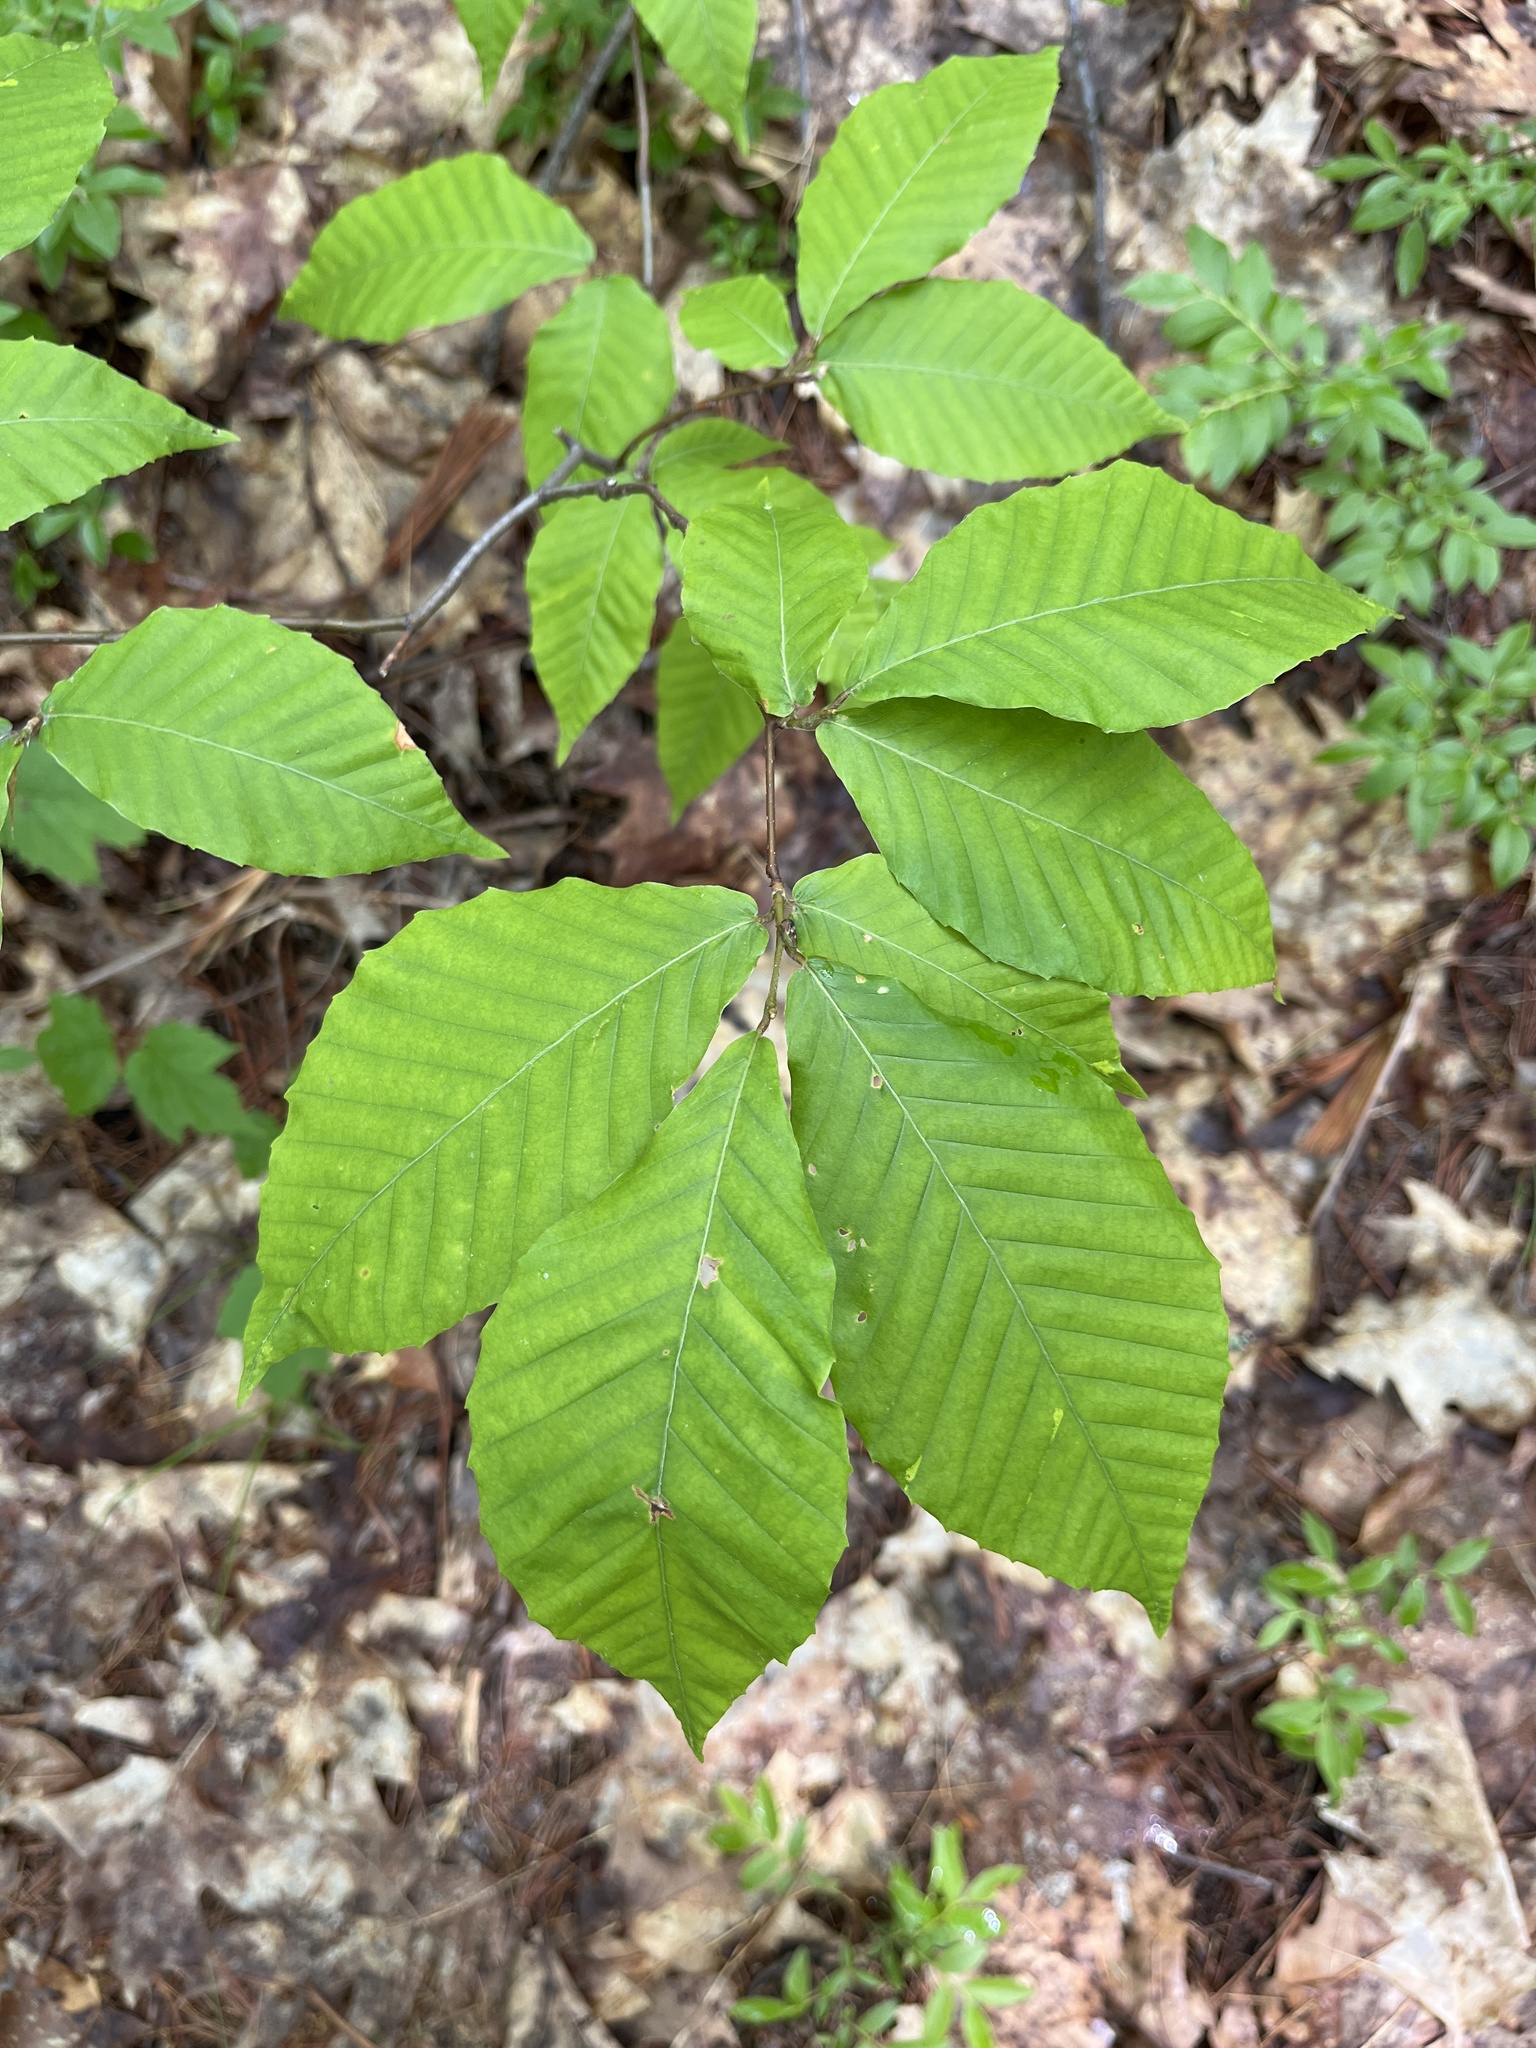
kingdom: Plantae
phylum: Tracheophyta
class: Magnoliopsida
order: Fagales
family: Fagaceae
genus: Fagus
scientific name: Fagus grandifolia
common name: American beech
